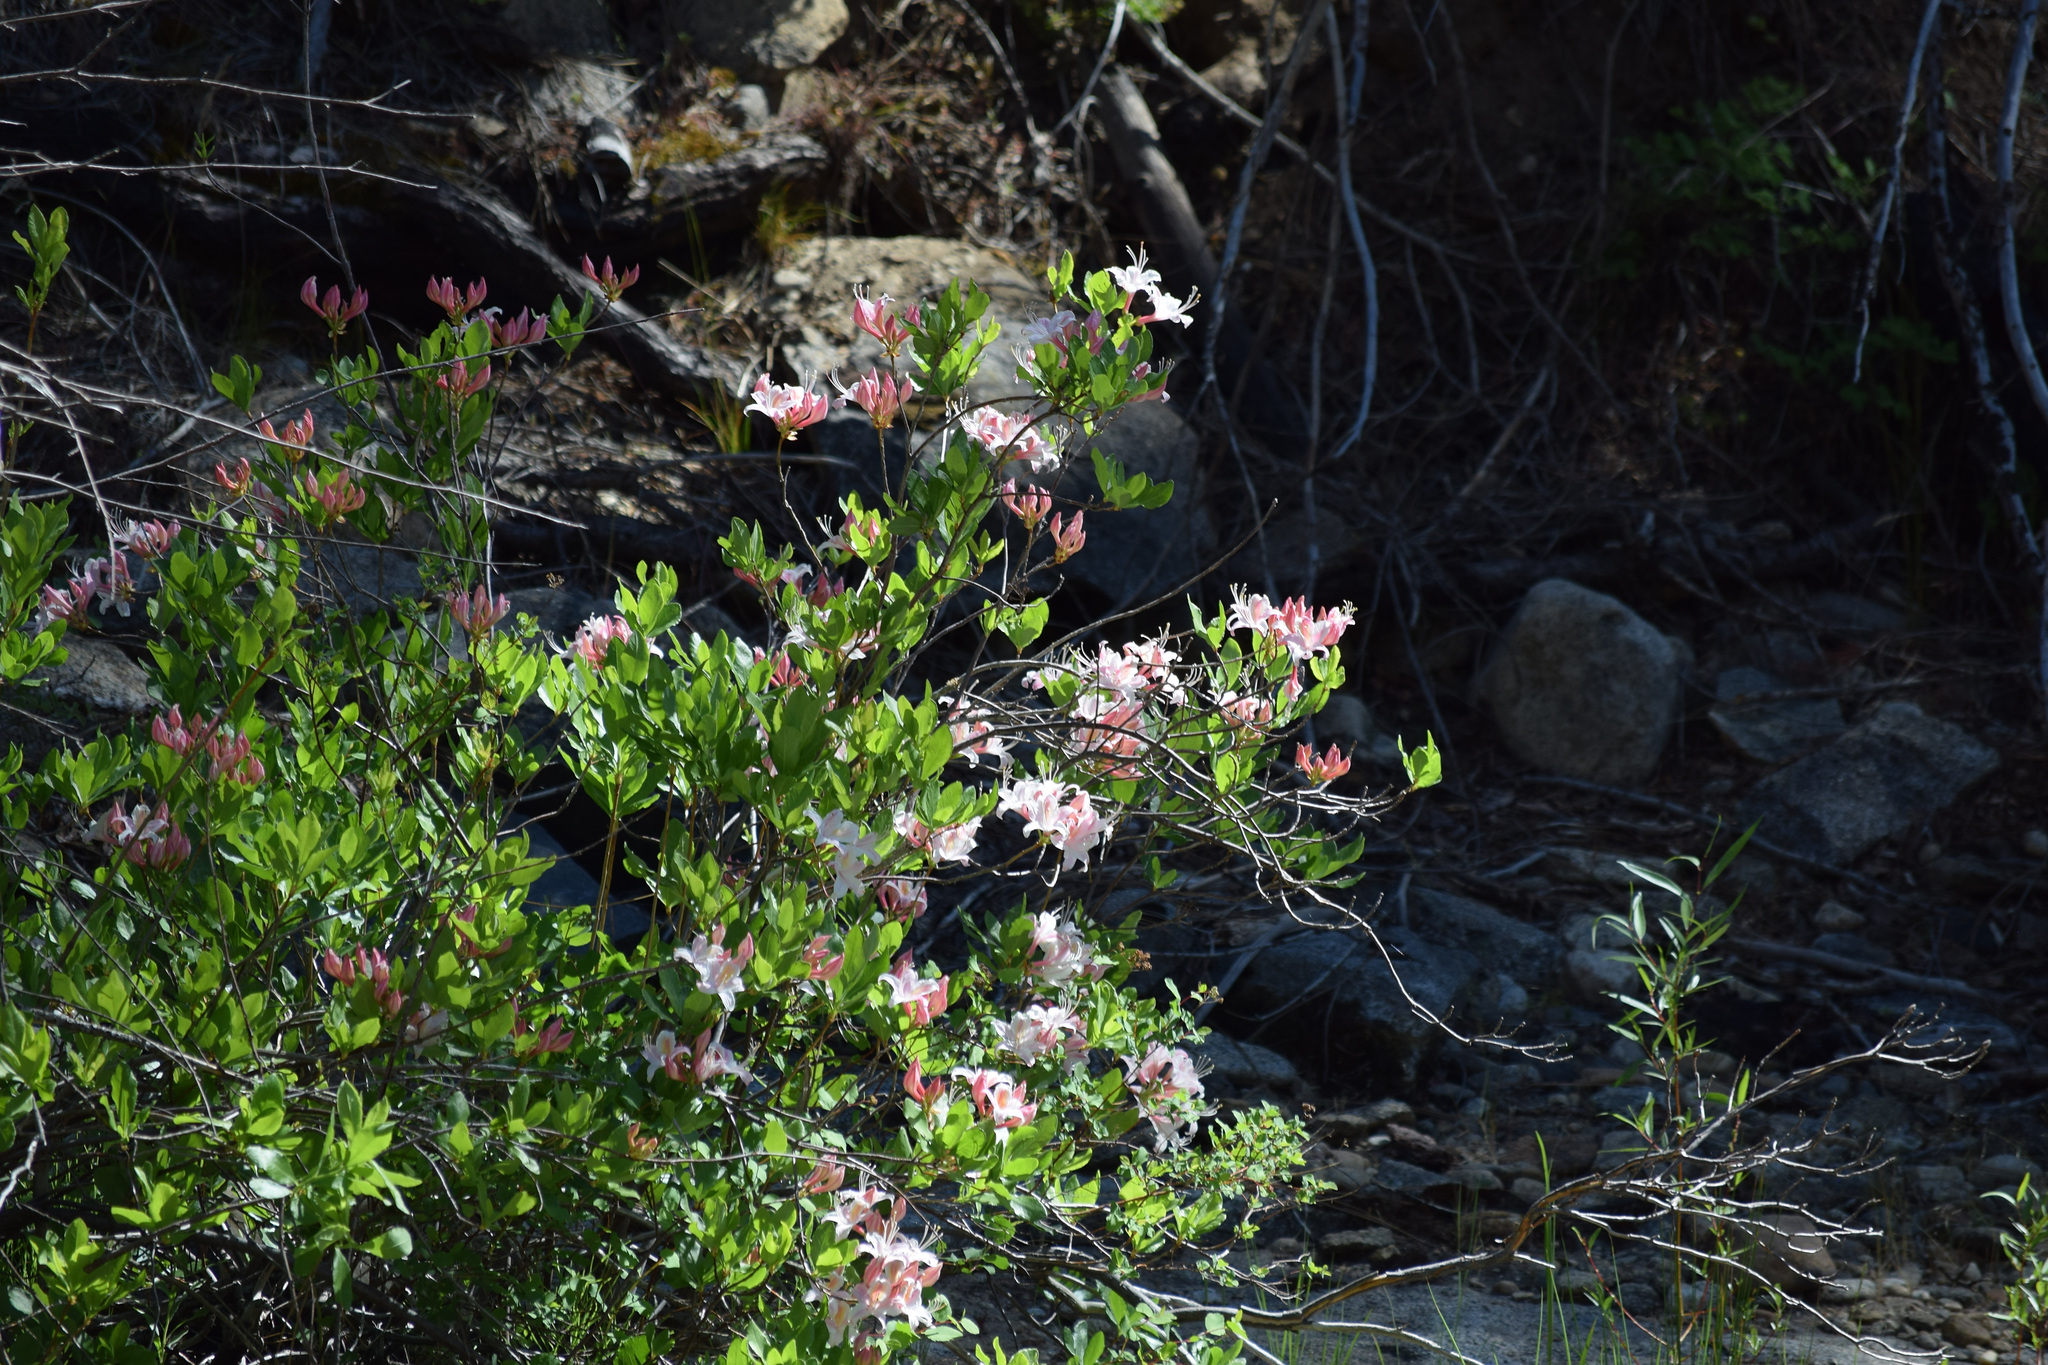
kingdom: Plantae
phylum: Tracheophyta
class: Magnoliopsida
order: Ericales
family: Ericaceae
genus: Rhododendron
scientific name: Rhododendron occidentale
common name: Western azalea
